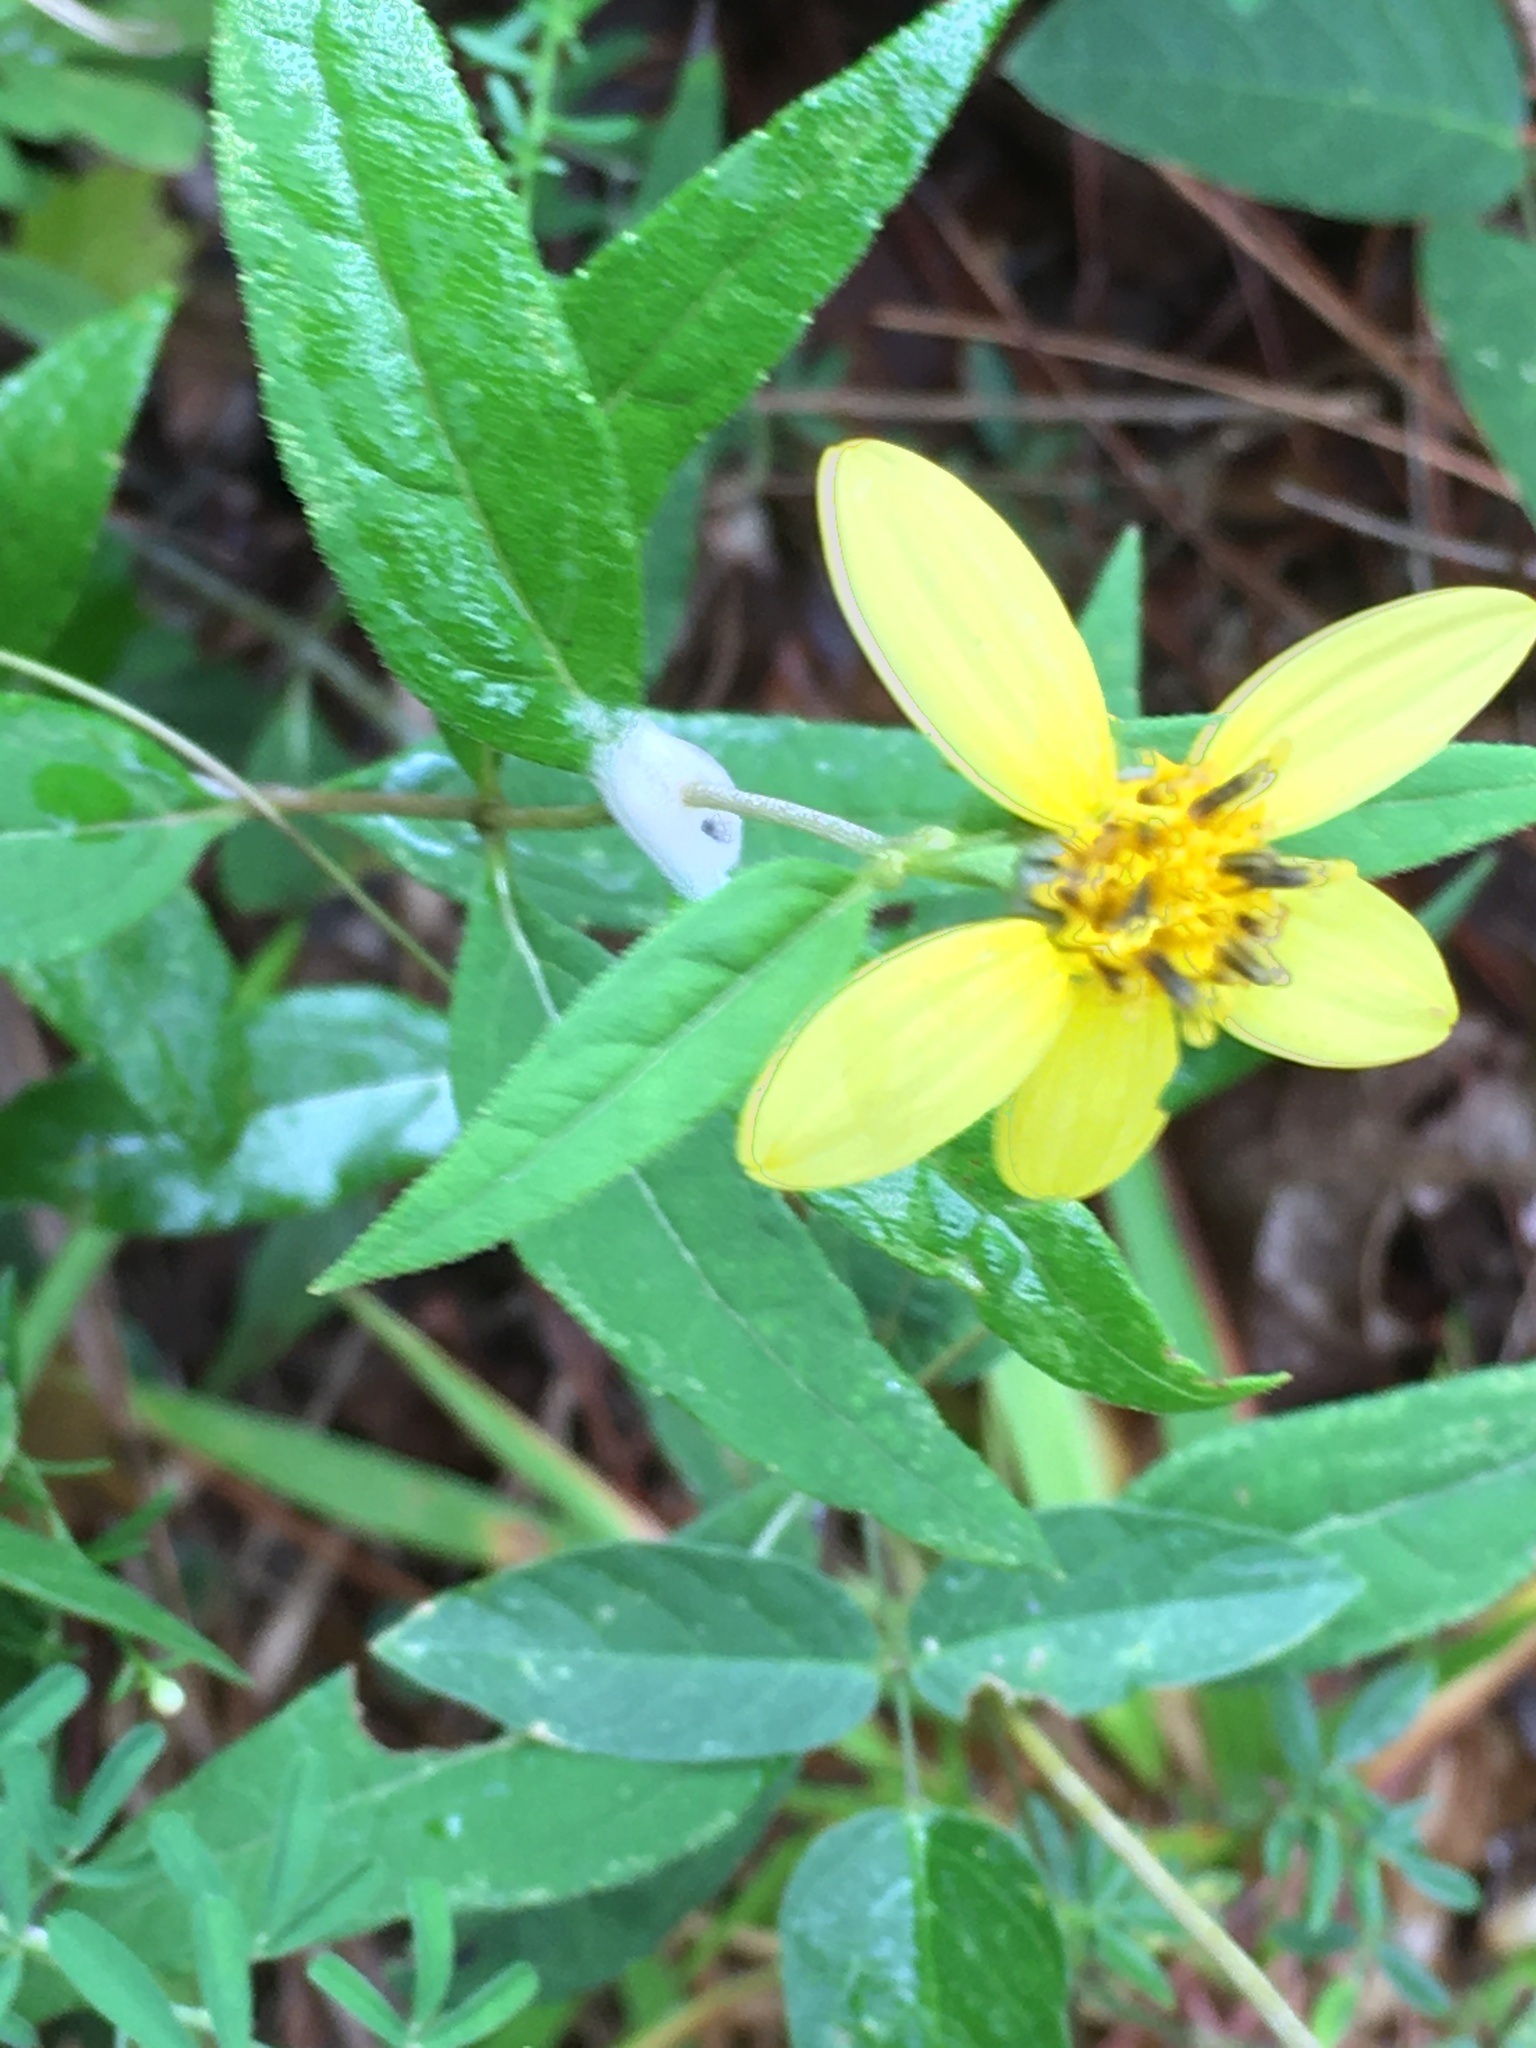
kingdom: Plantae
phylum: Tracheophyta
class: Magnoliopsida
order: Asterales
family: Asteraceae
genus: Helianthus
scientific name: Helianthus microcephalus
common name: Woodland sunflower
